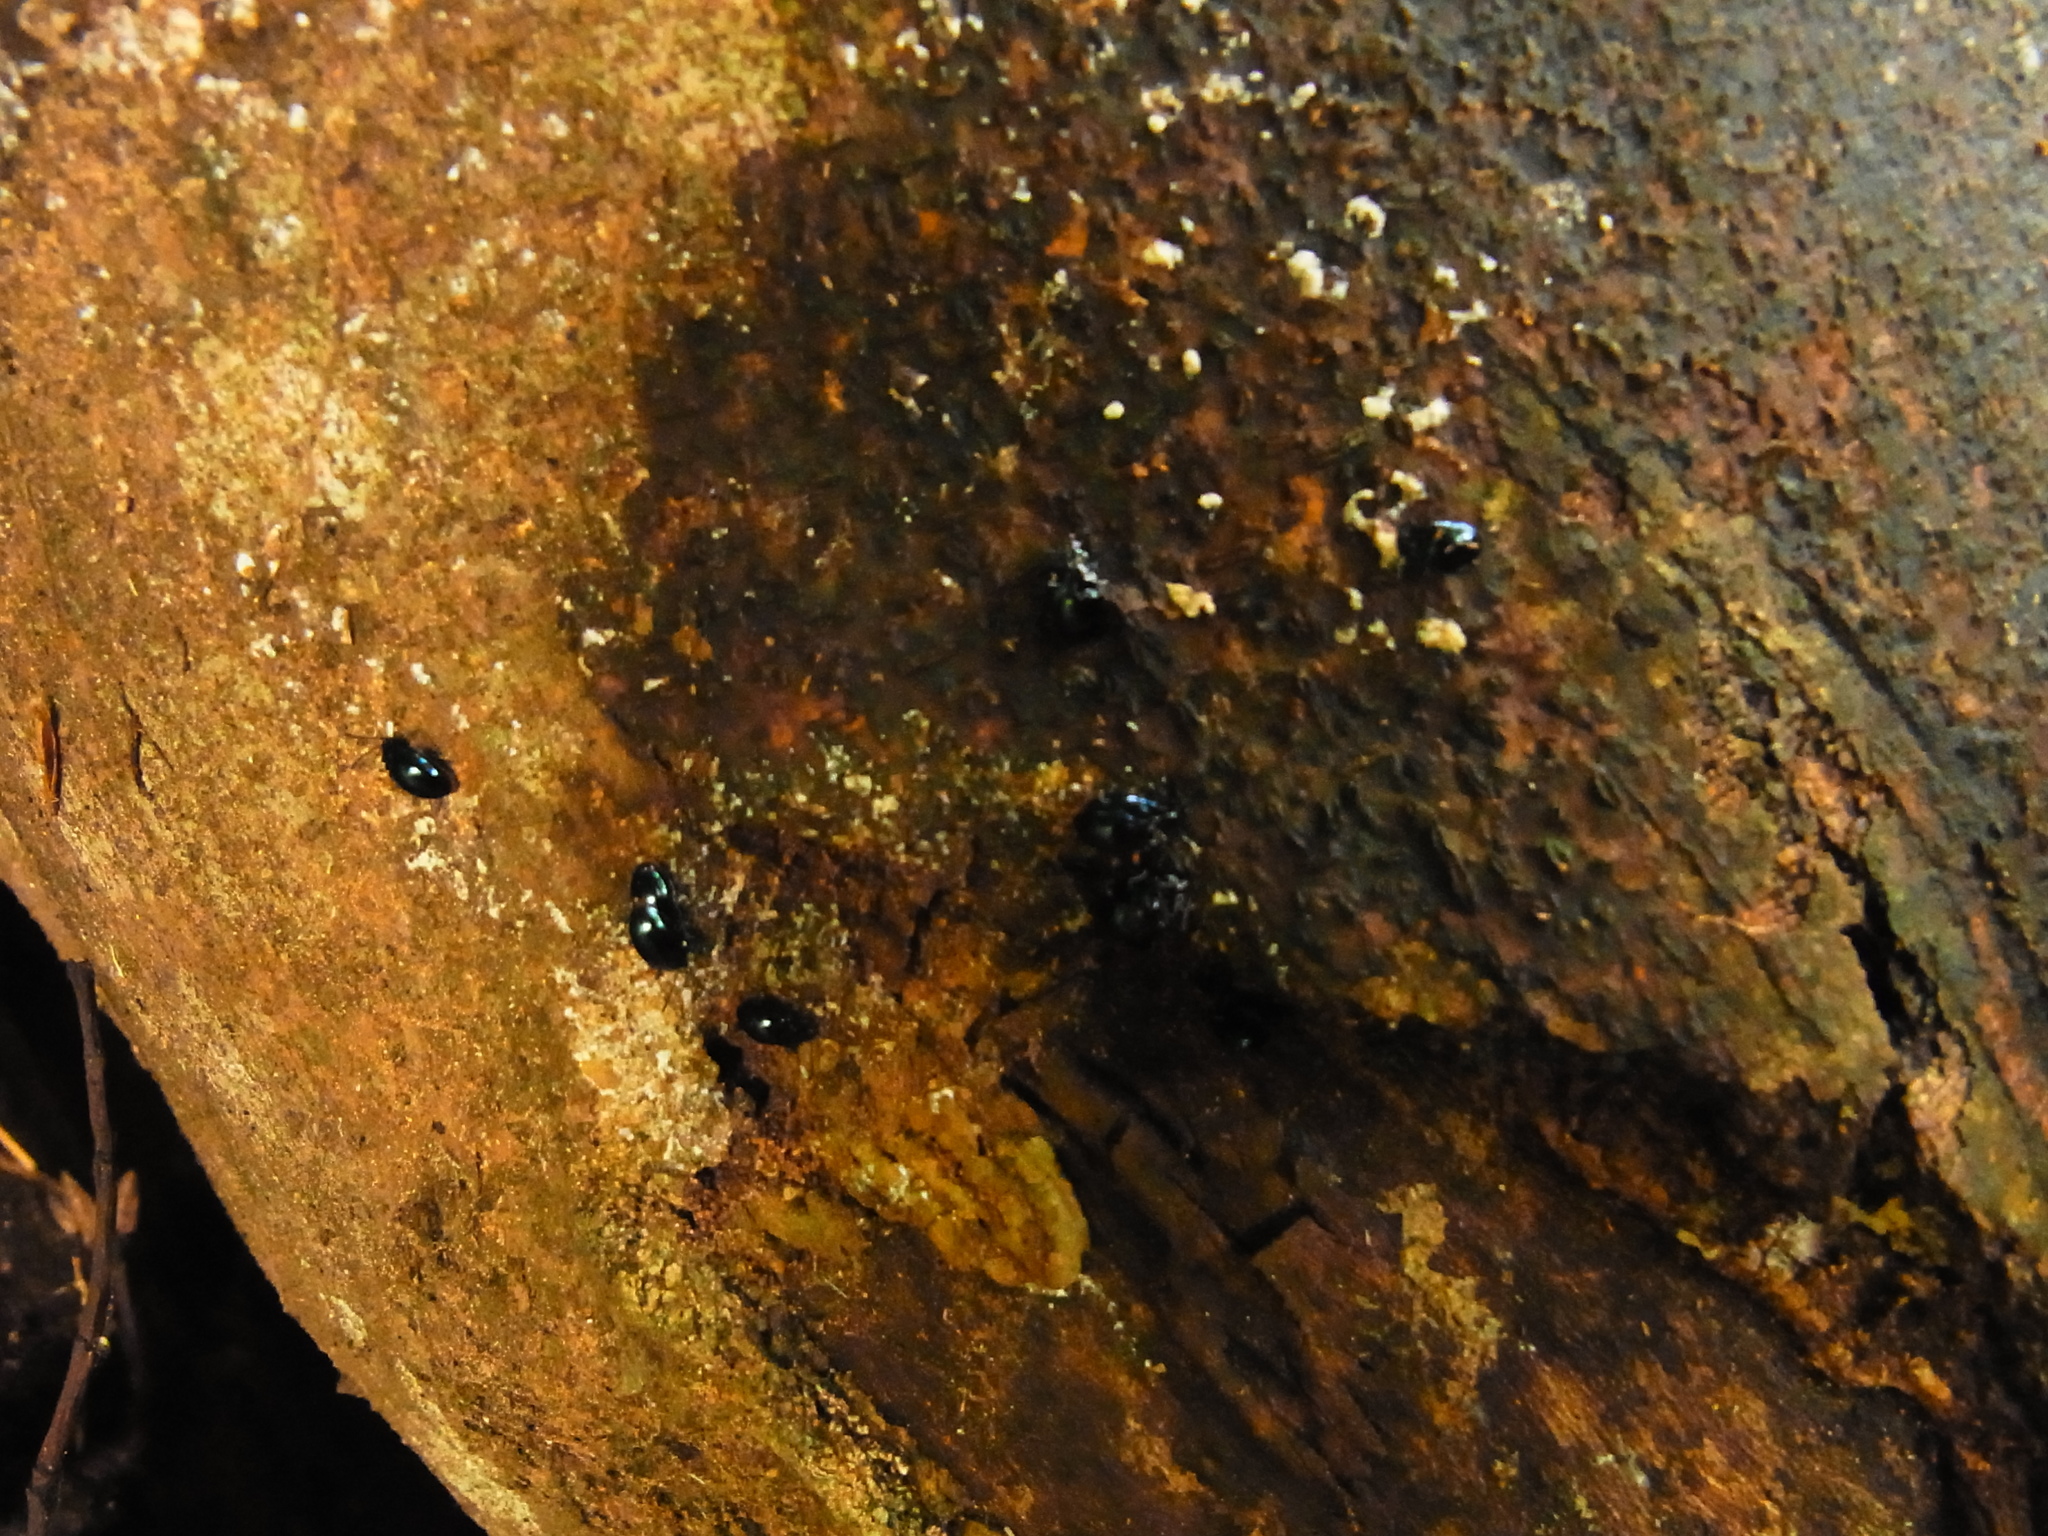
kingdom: Animalia
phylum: Arthropoda
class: Insecta
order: Coleoptera
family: Endomychidae
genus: Endomychus
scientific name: Endomychus
